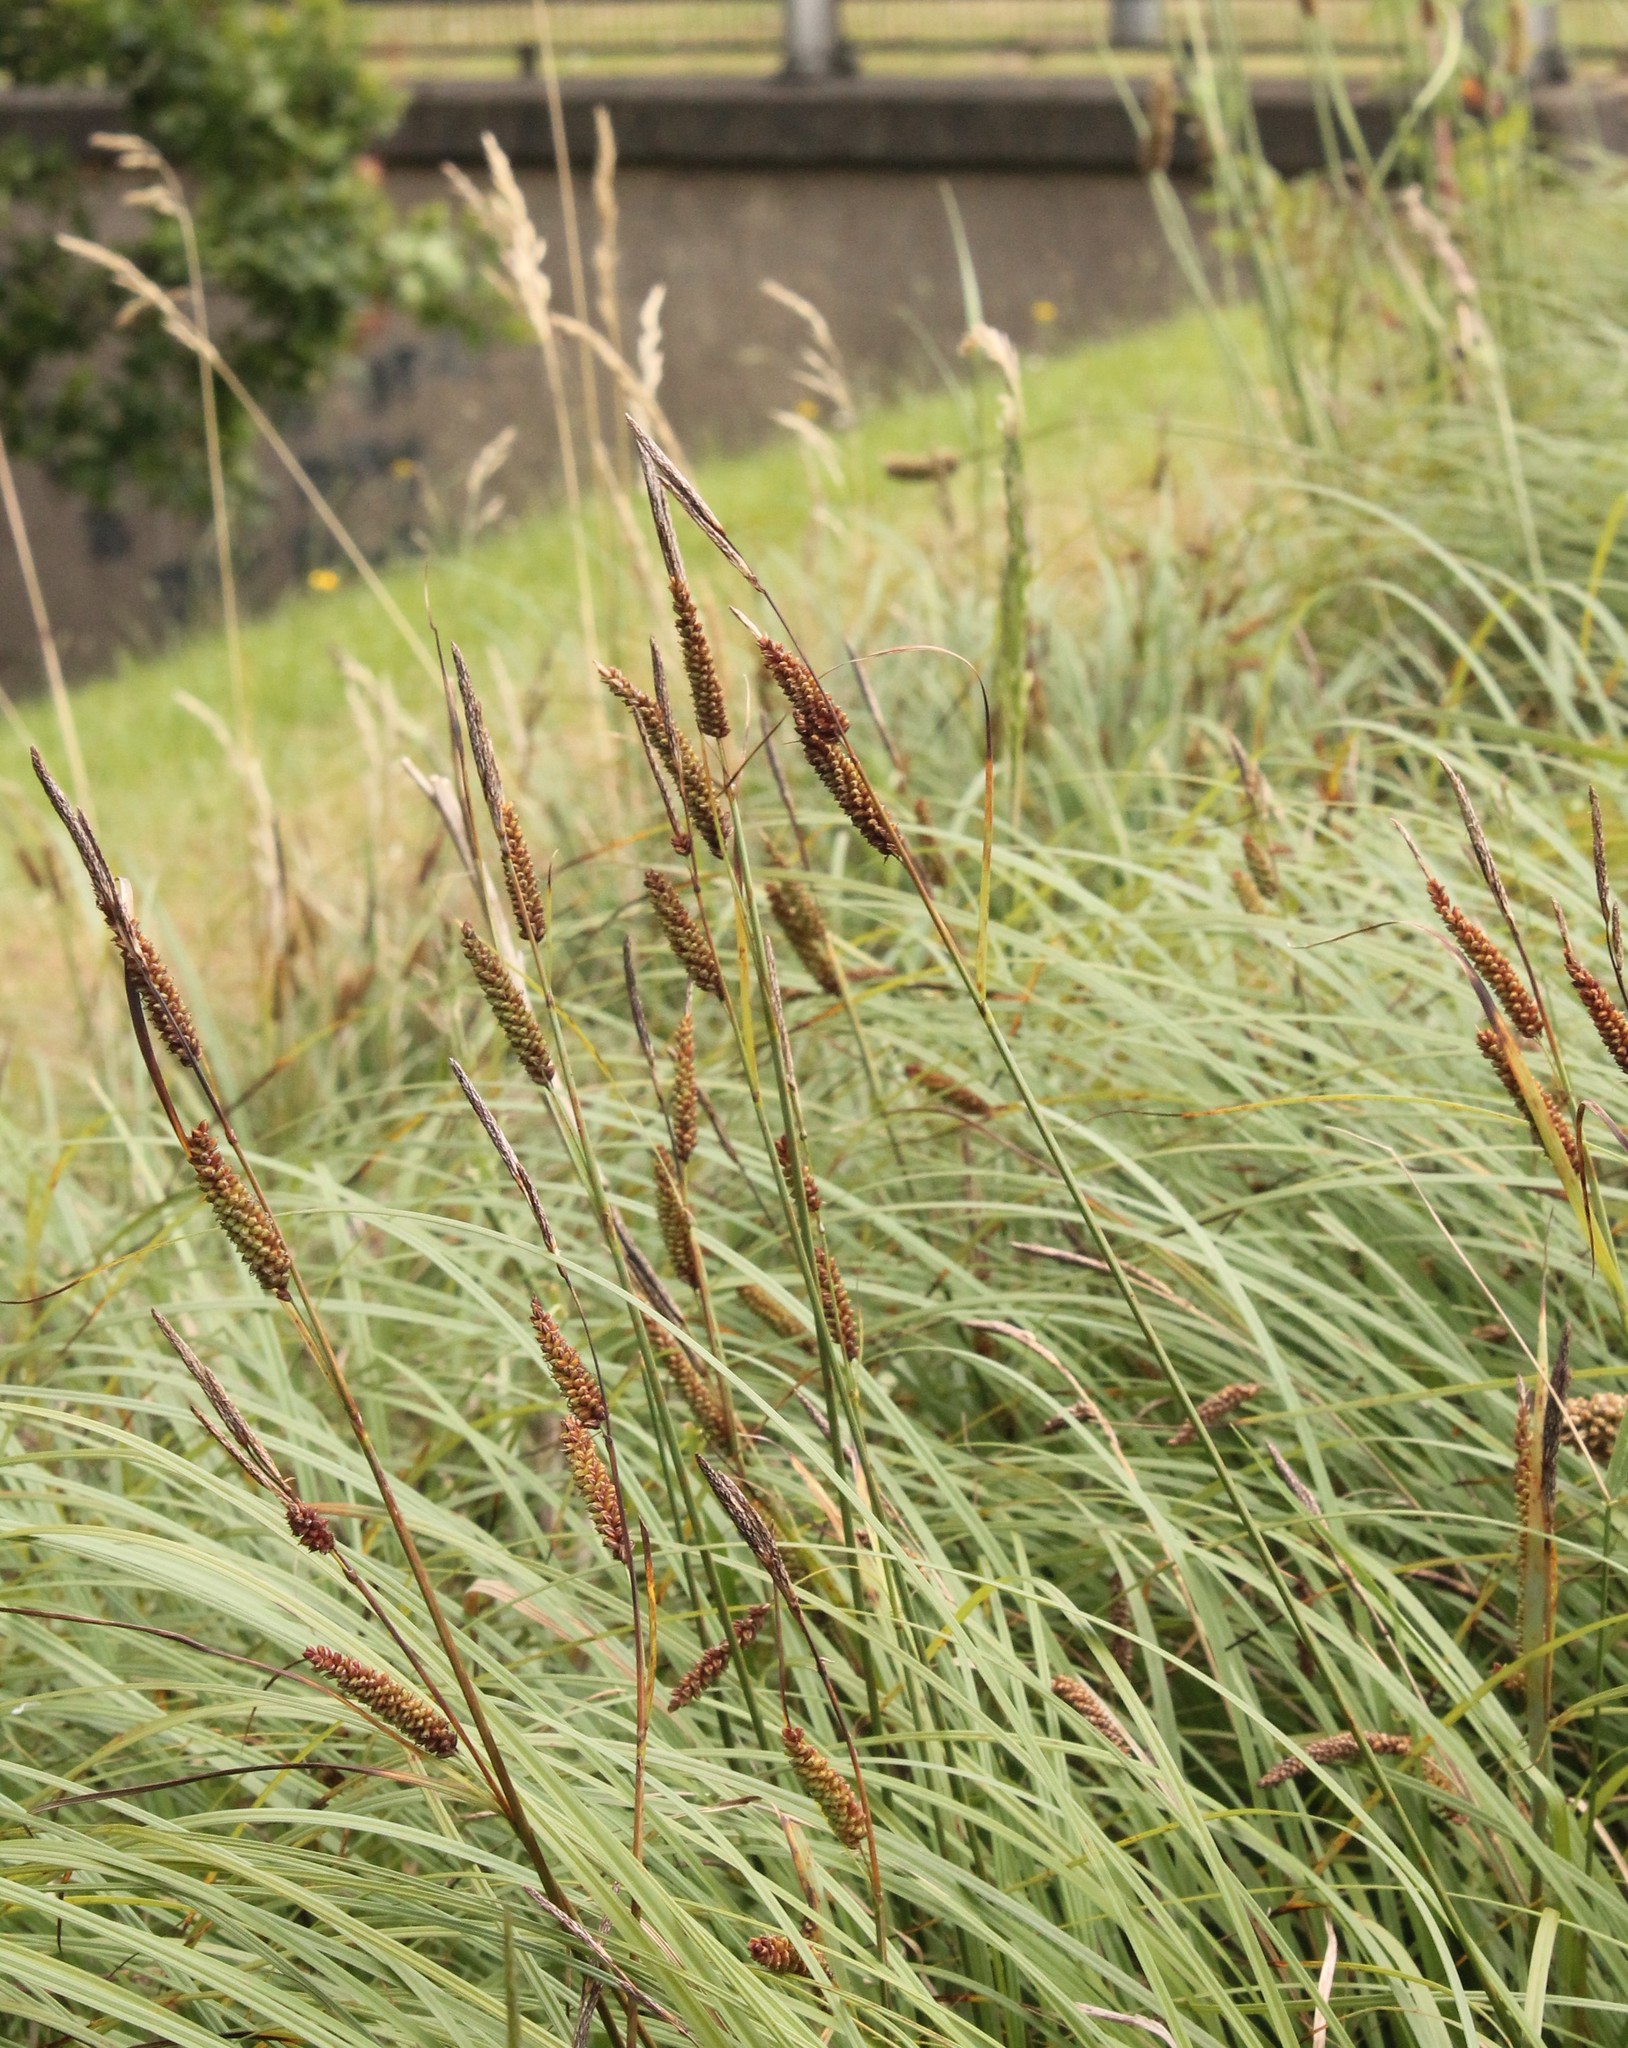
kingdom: Plantae
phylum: Tracheophyta
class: Liliopsida
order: Poales
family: Cyperaceae
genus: Carex
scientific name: Carex flacca
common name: Glaucous sedge
